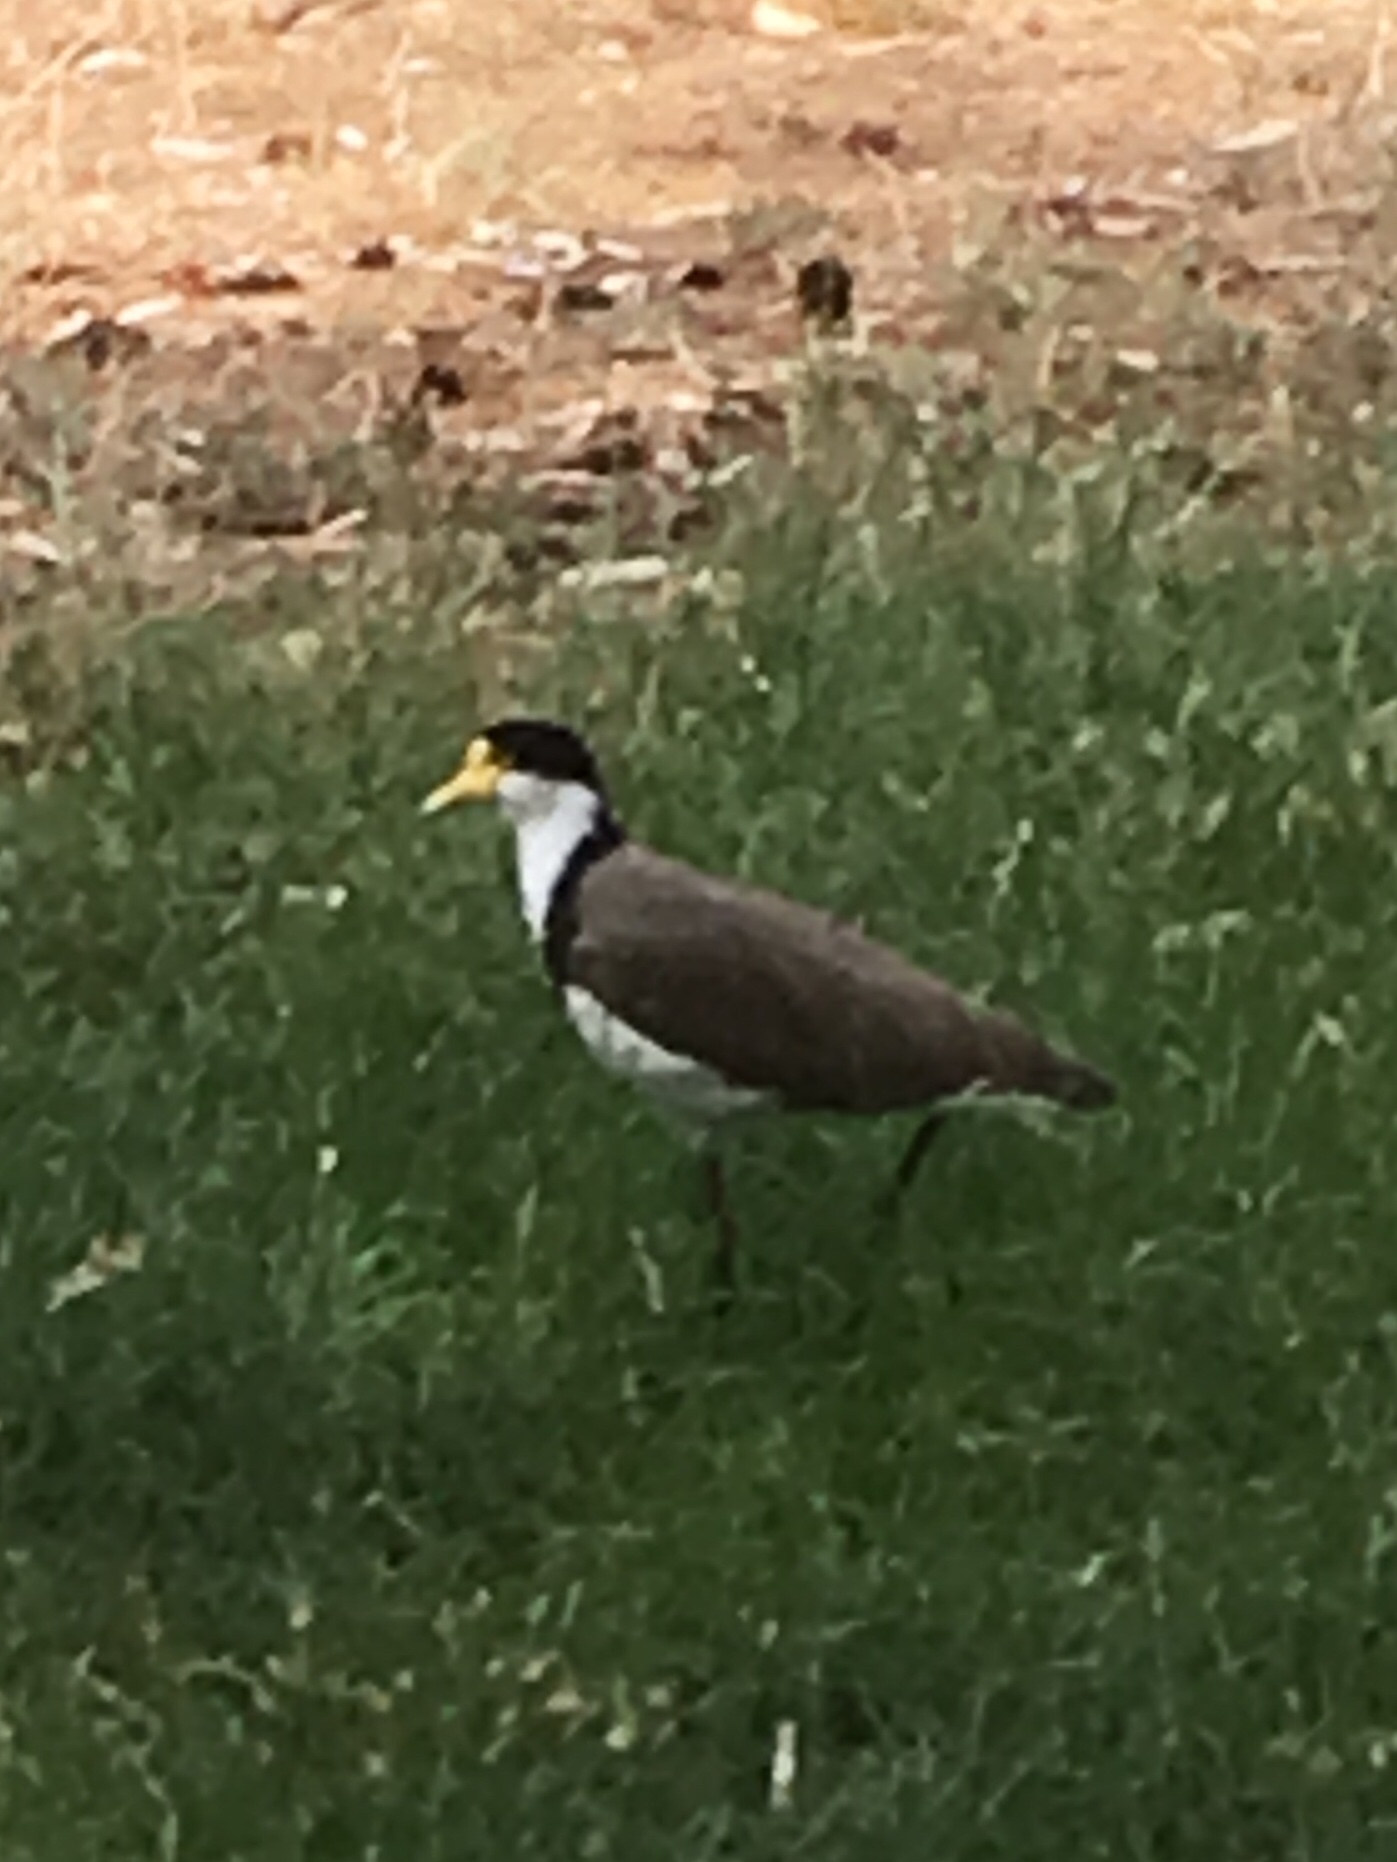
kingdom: Animalia
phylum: Chordata
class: Aves
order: Charadriiformes
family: Charadriidae
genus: Vanellus
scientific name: Vanellus miles
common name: Masked lapwing
